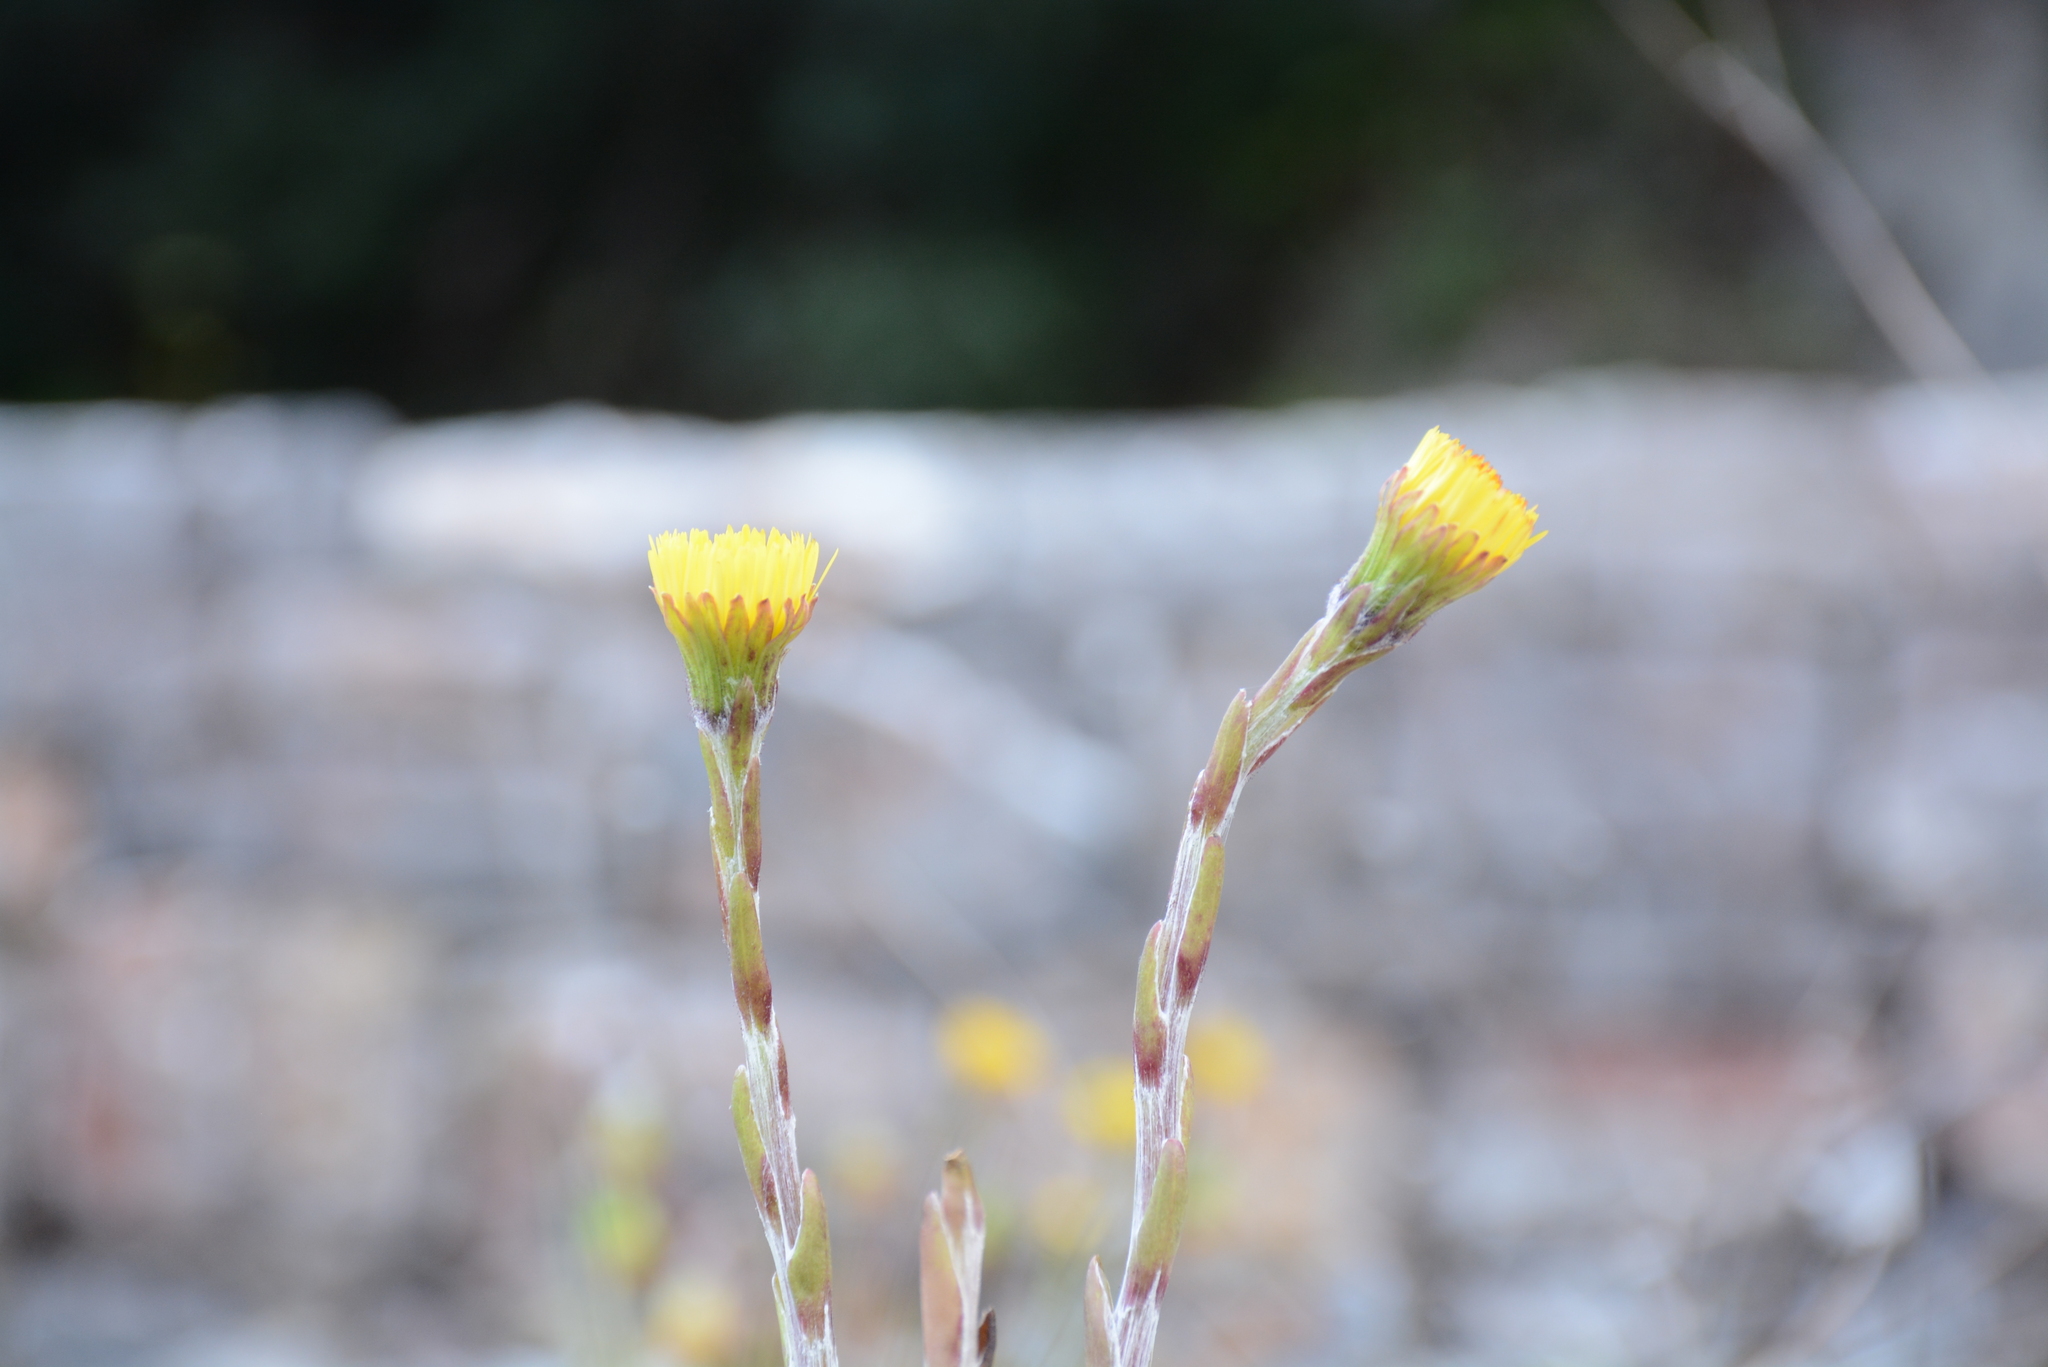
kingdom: Plantae
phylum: Tracheophyta
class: Magnoliopsida
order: Asterales
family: Asteraceae
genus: Tussilago
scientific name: Tussilago farfara
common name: Coltsfoot
